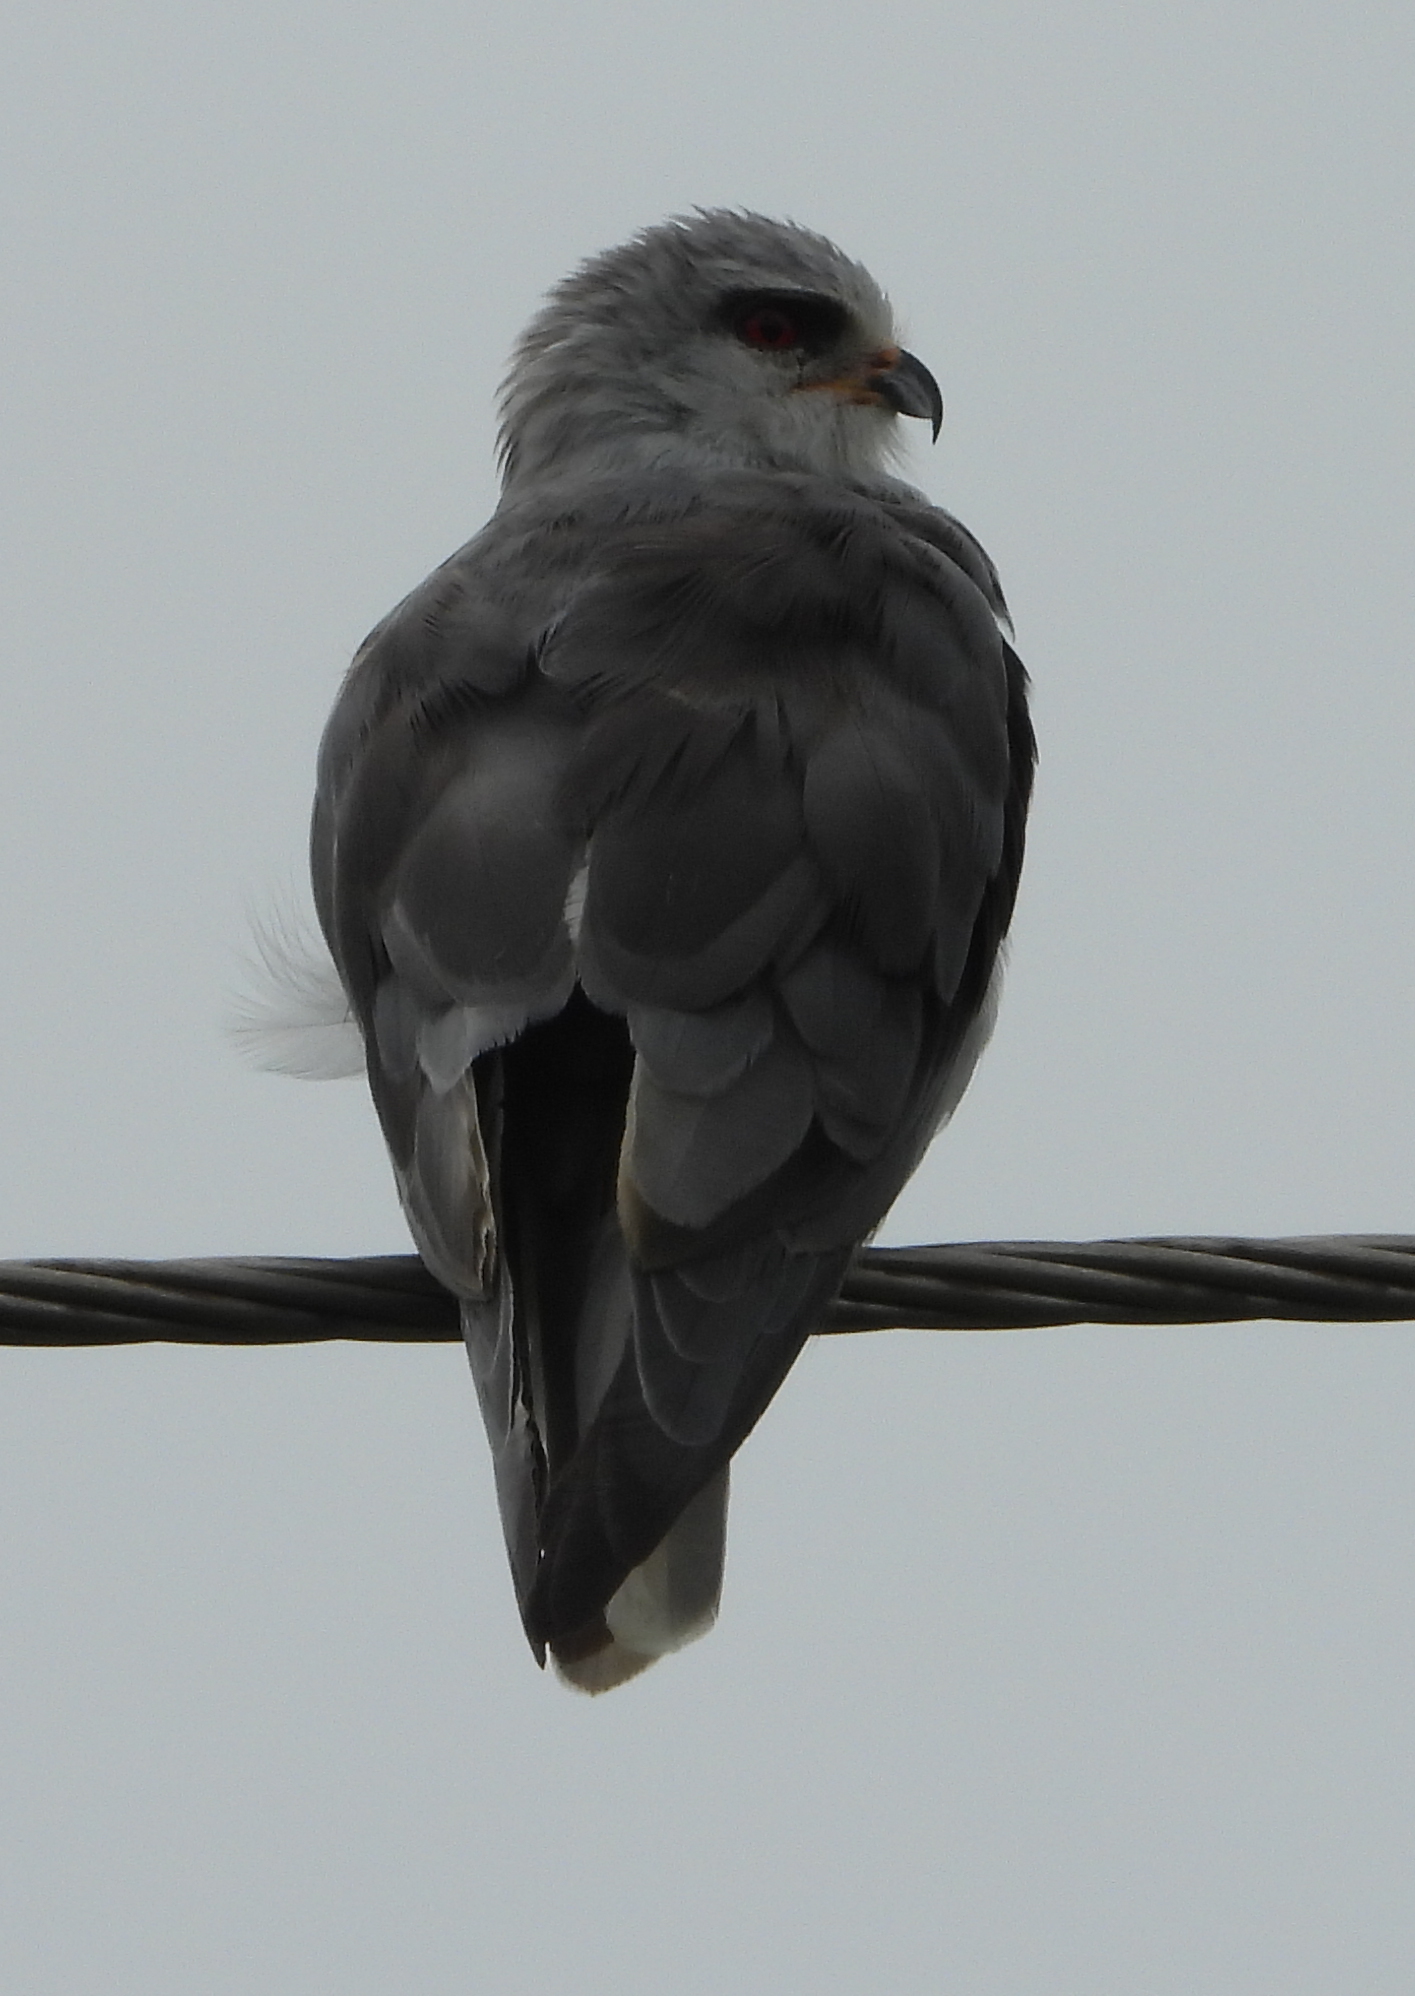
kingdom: Animalia
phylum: Chordata
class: Aves
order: Accipitriformes
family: Accipitridae
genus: Elanus
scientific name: Elanus caeruleus
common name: Black-winged kite
